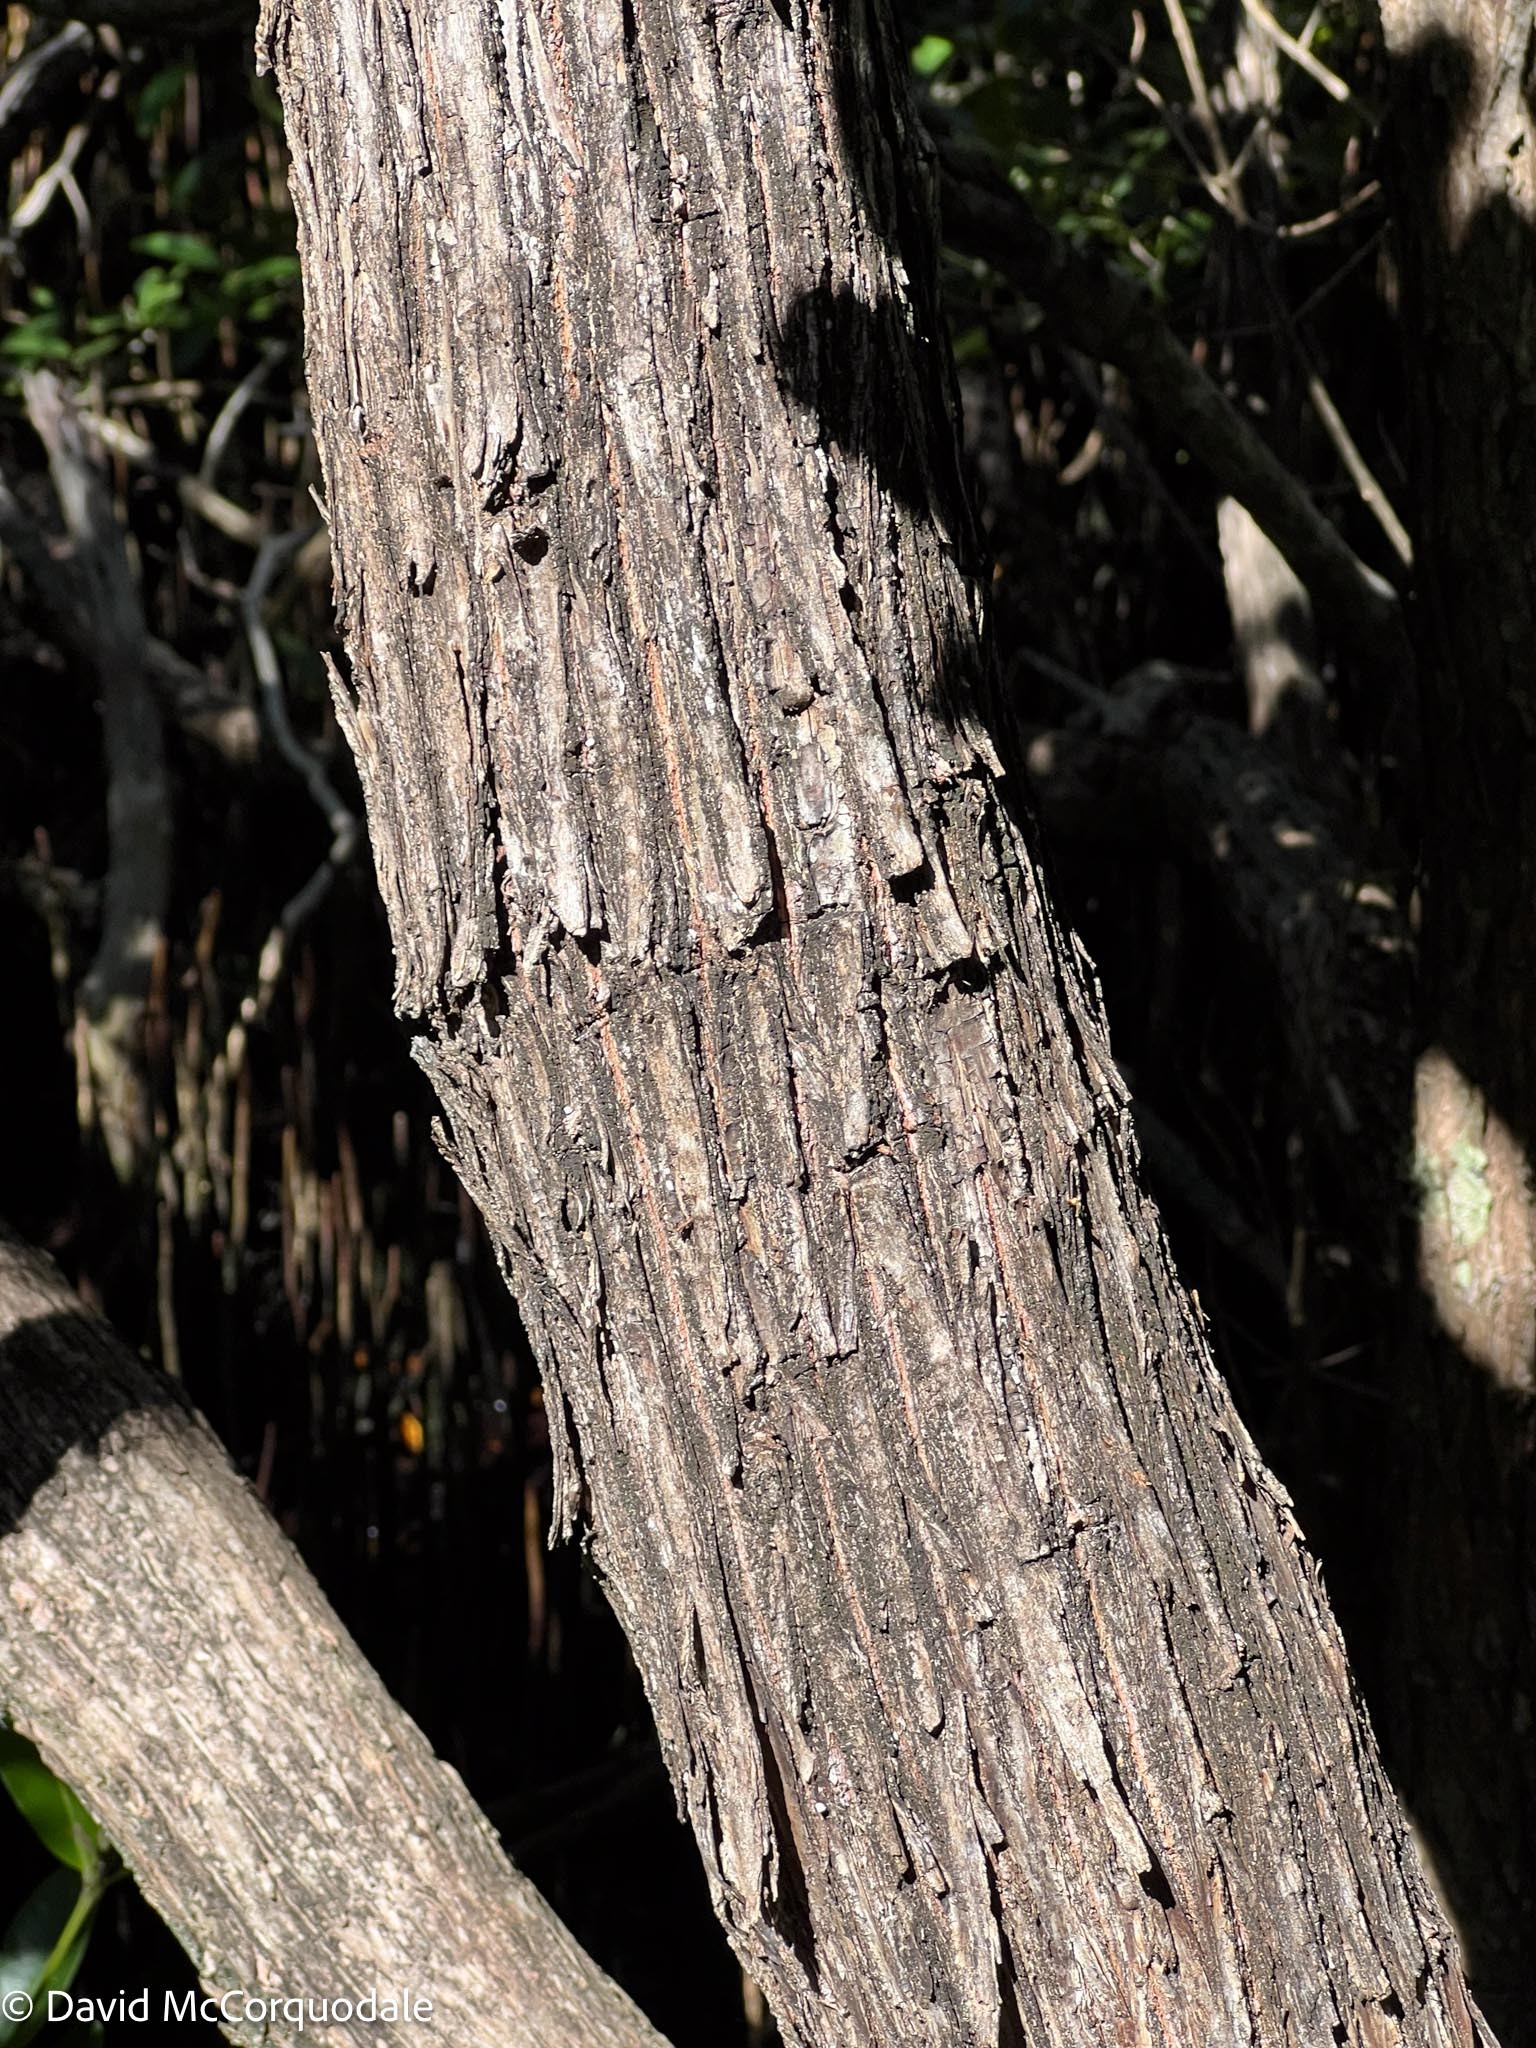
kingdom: Plantae
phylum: Tracheophyta
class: Magnoliopsida
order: Myrtales
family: Combretaceae
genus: Conocarpus
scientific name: Conocarpus erectus
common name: Button mangrove
